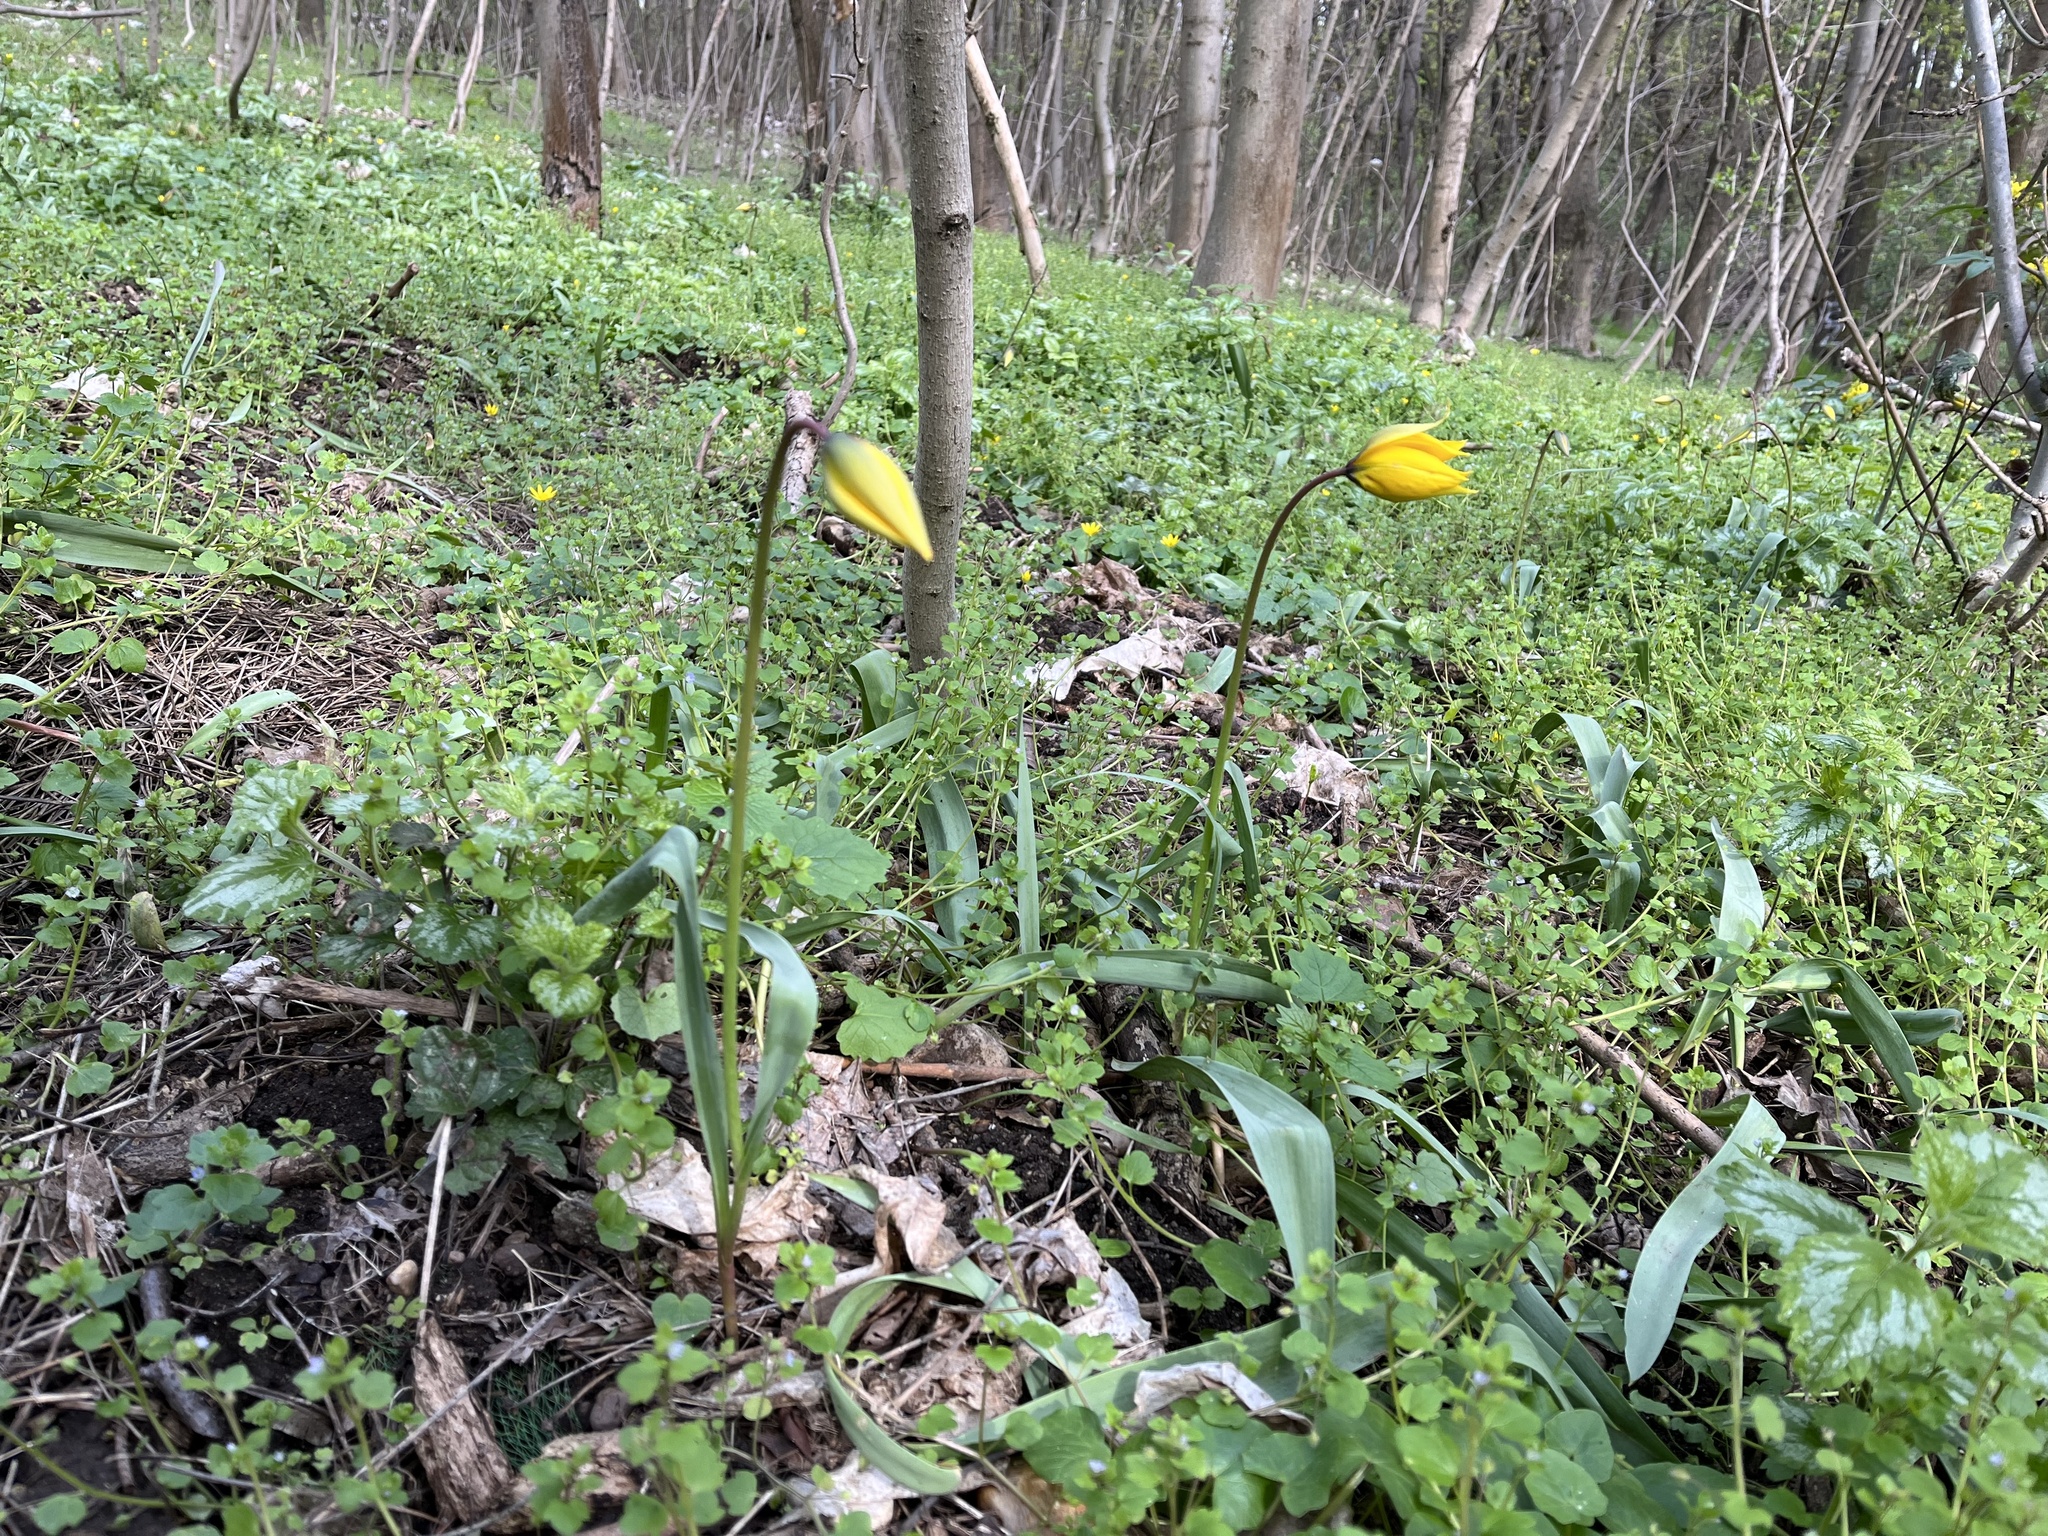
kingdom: Plantae
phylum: Tracheophyta
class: Liliopsida
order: Liliales
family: Liliaceae
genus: Tulipa
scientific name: Tulipa sylvestris
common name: Wild tulip
